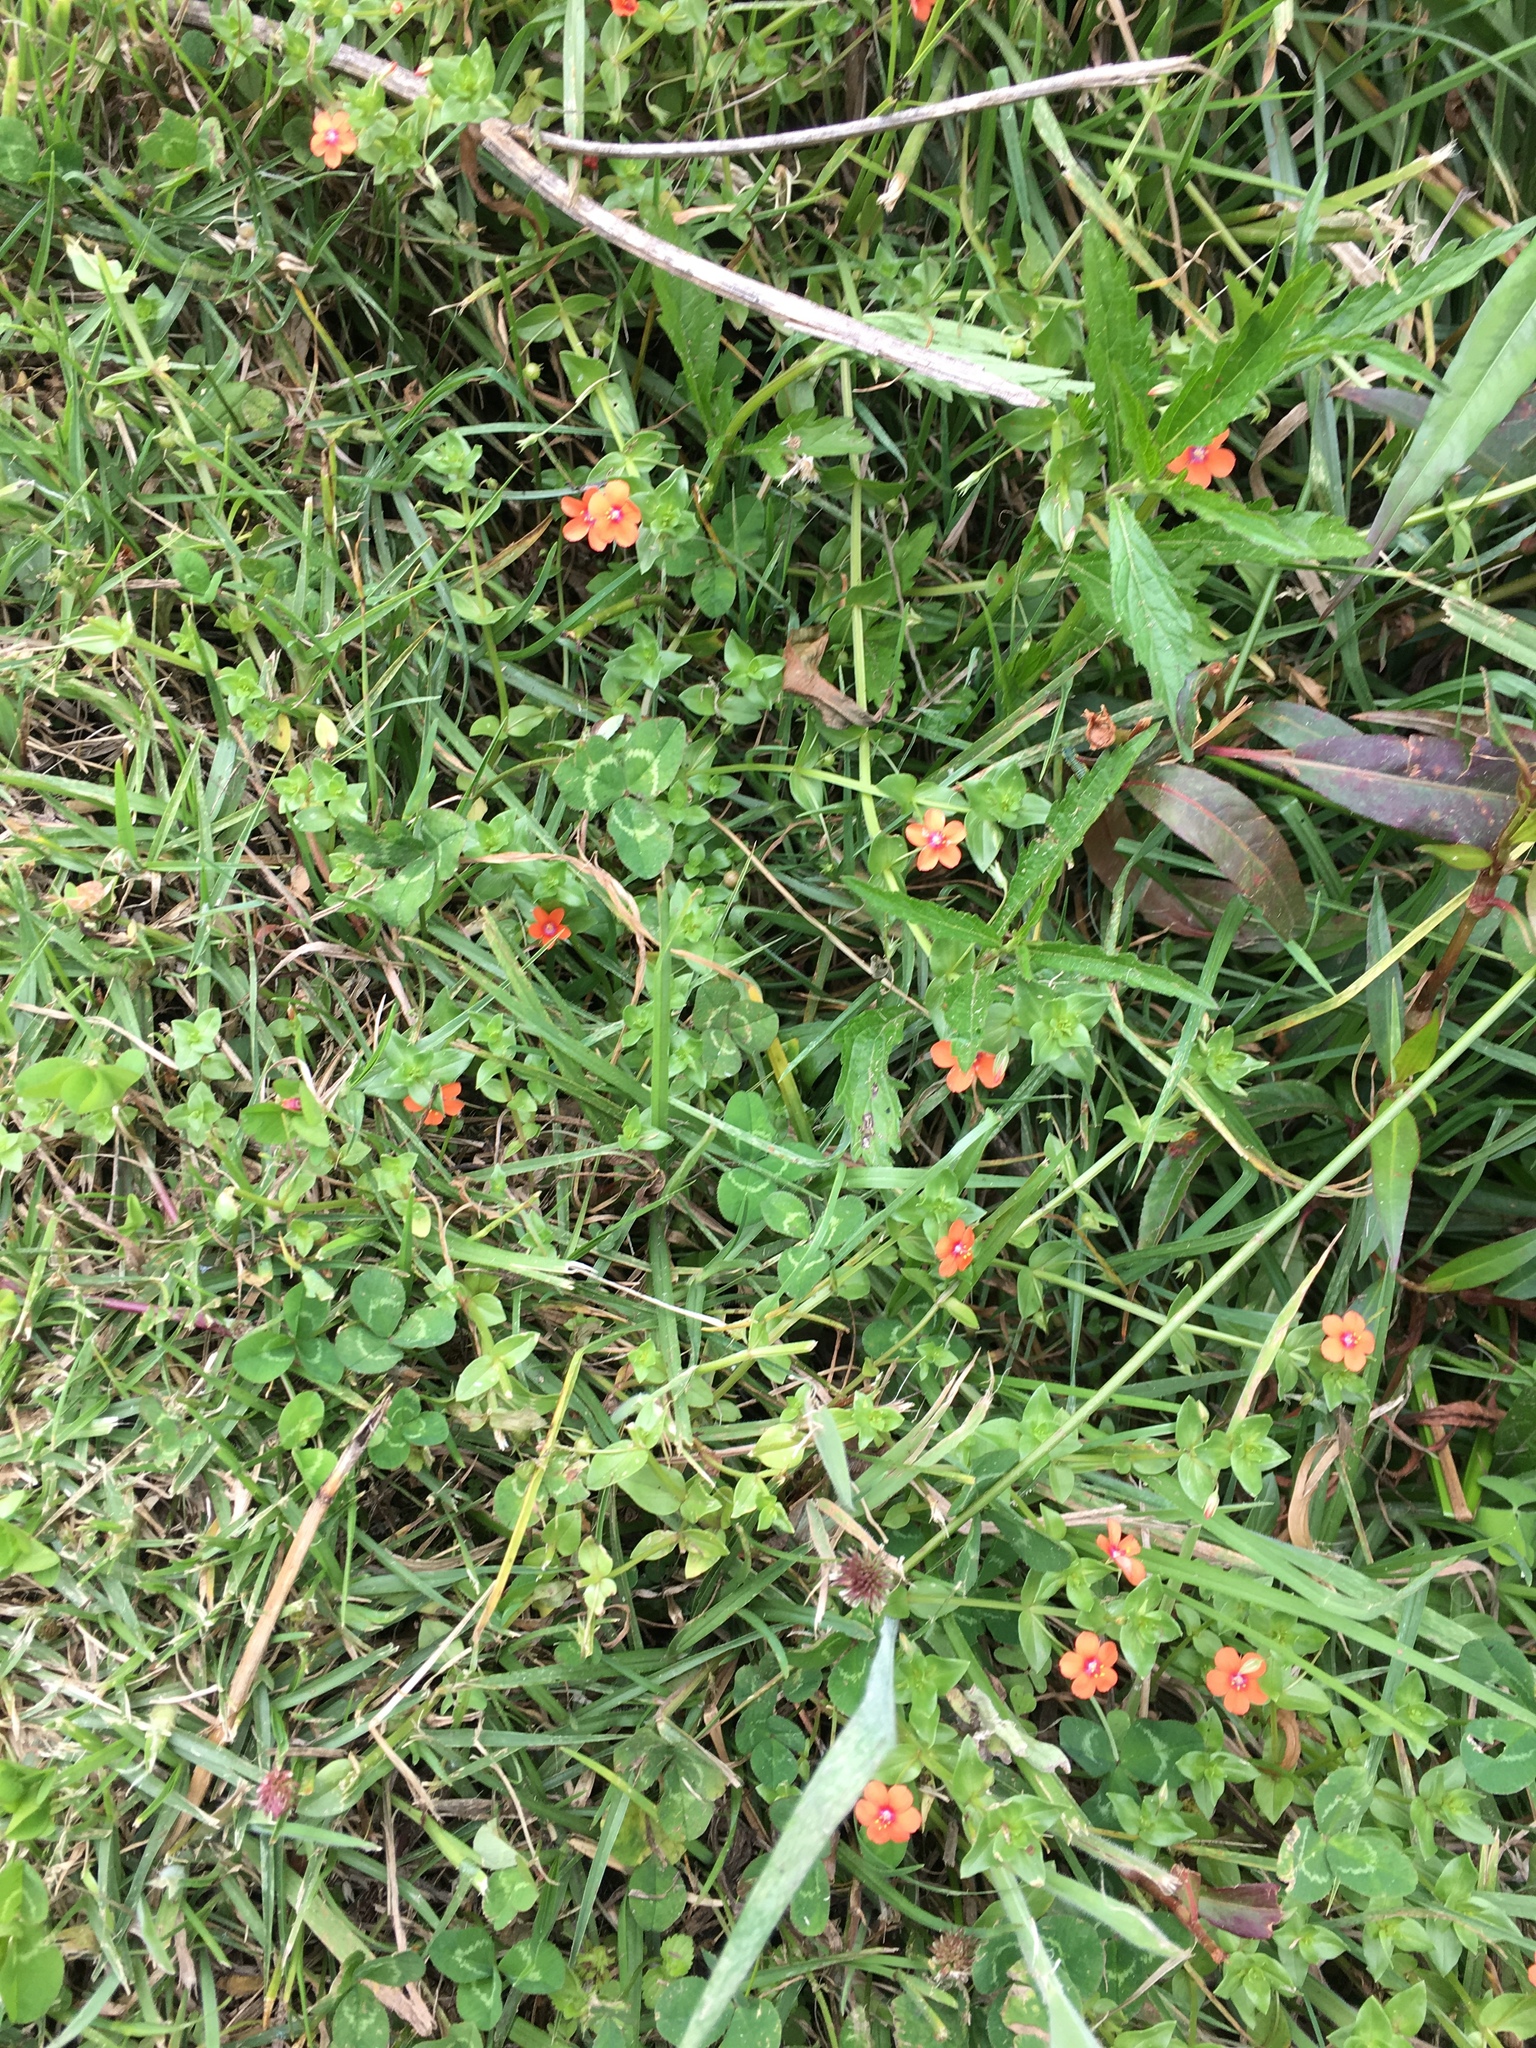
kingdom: Plantae
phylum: Tracheophyta
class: Magnoliopsida
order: Ericales
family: Primulaceae
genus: Lysimachia
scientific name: Lysimachia arvensis
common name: Scarlet pimpernel
